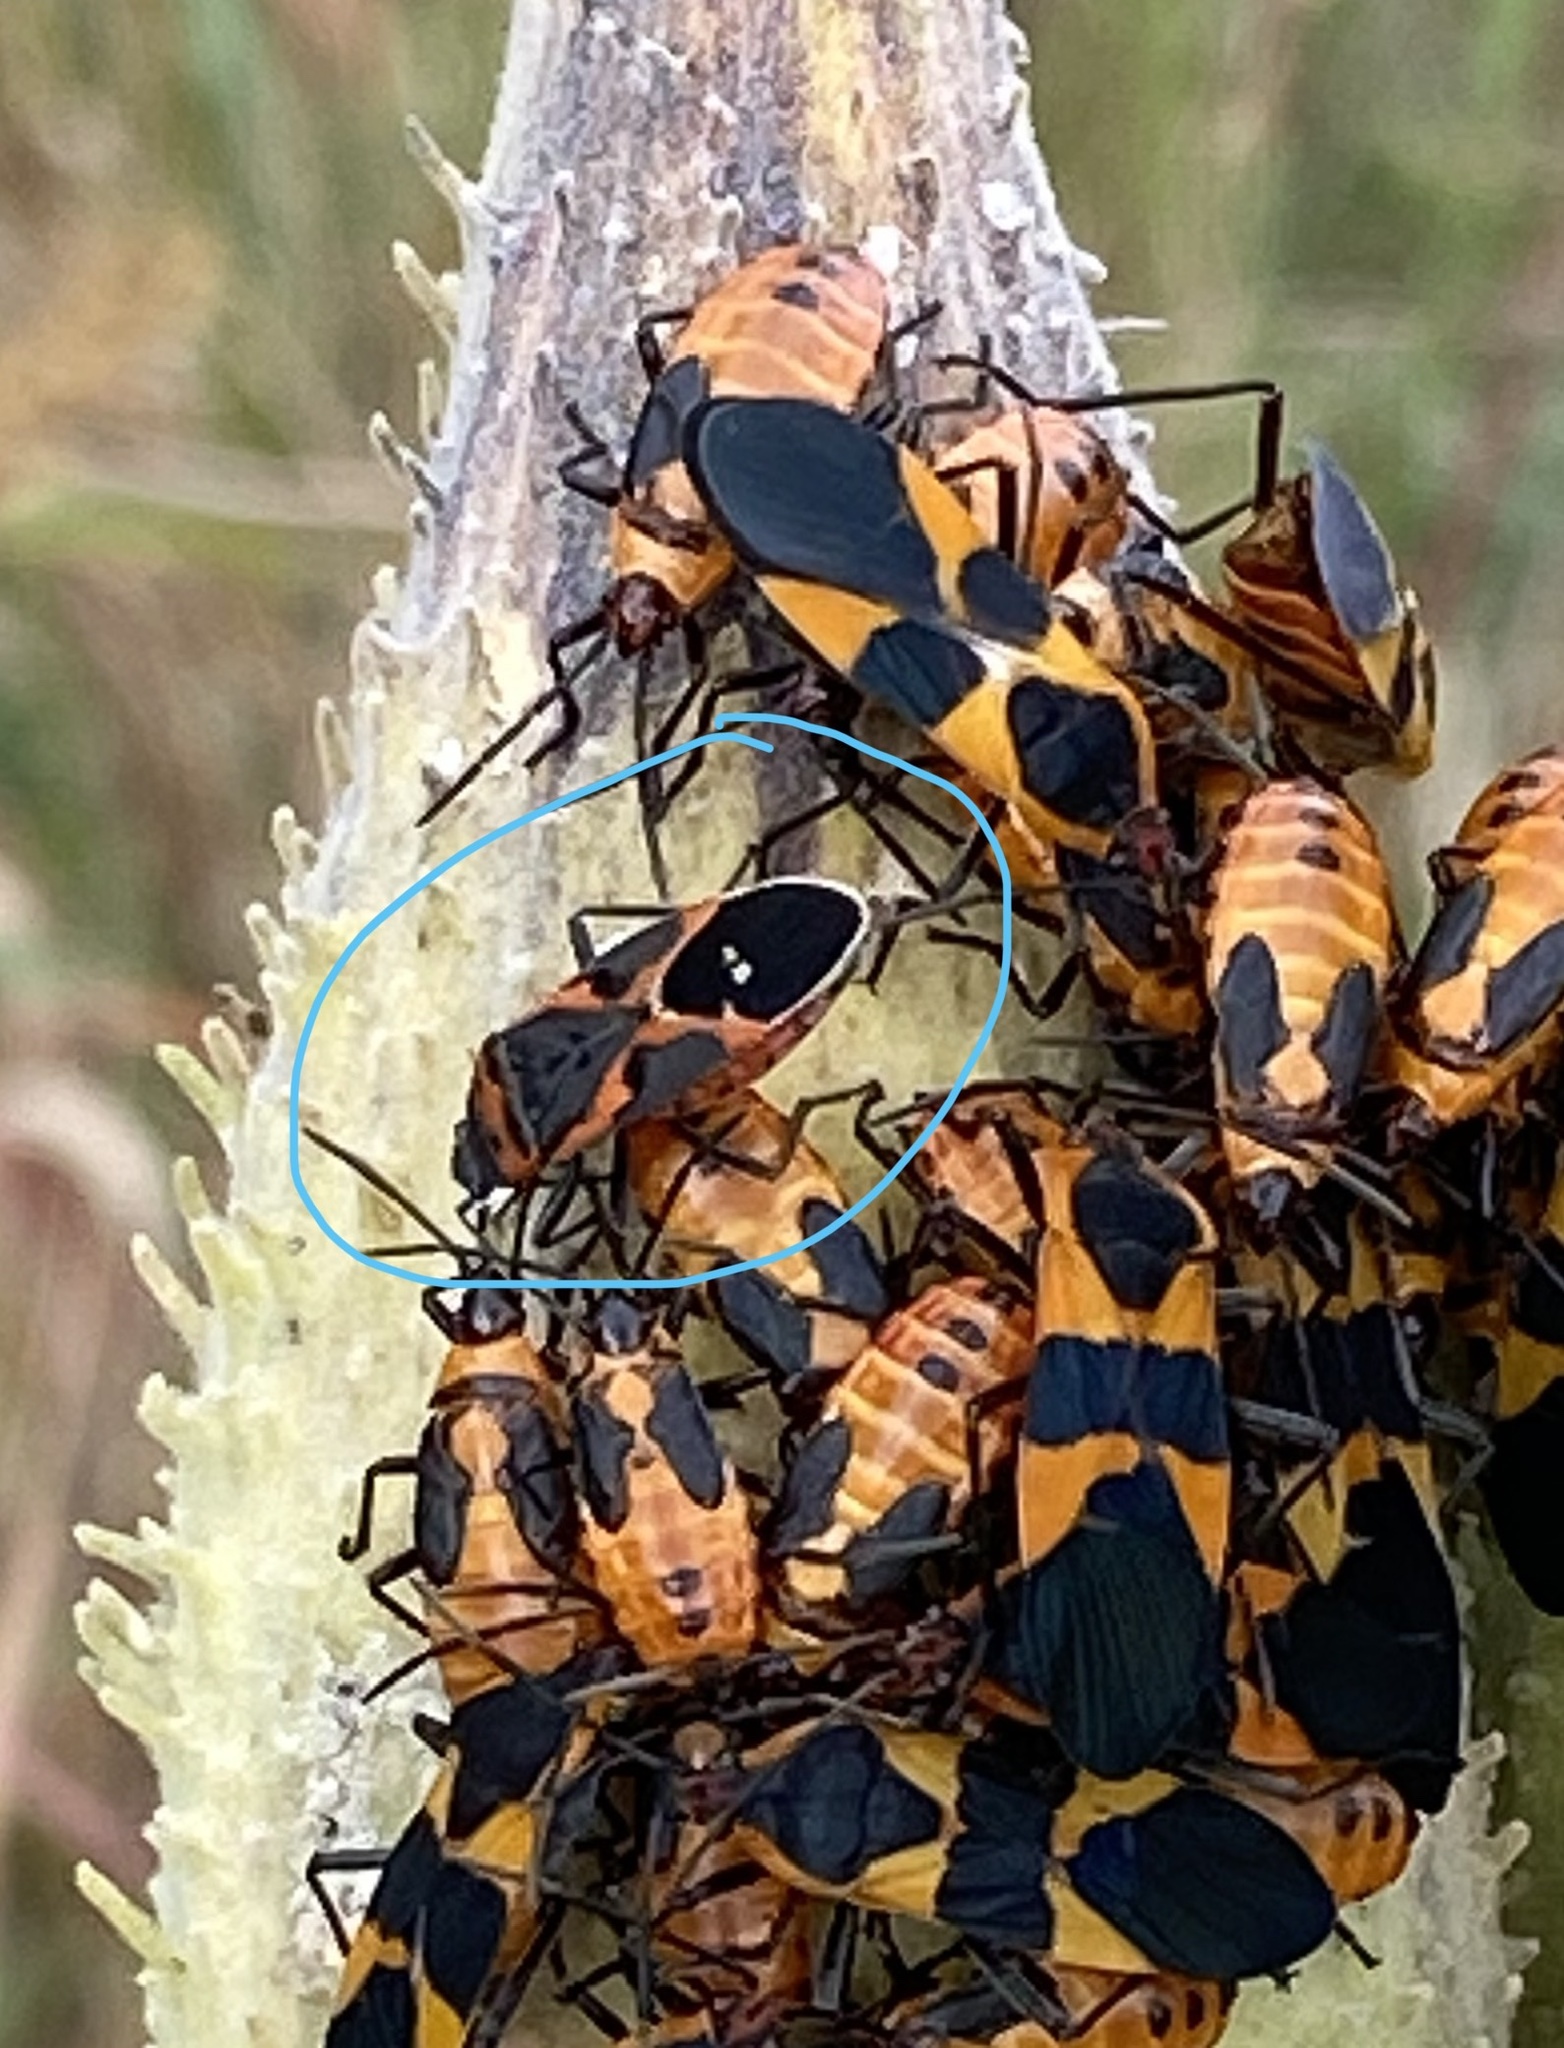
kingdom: Animalia
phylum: Arthropoda
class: Insecta
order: Hemiptera
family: Lygaeidae
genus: Lygaeus
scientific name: Lygaeus kalmii
